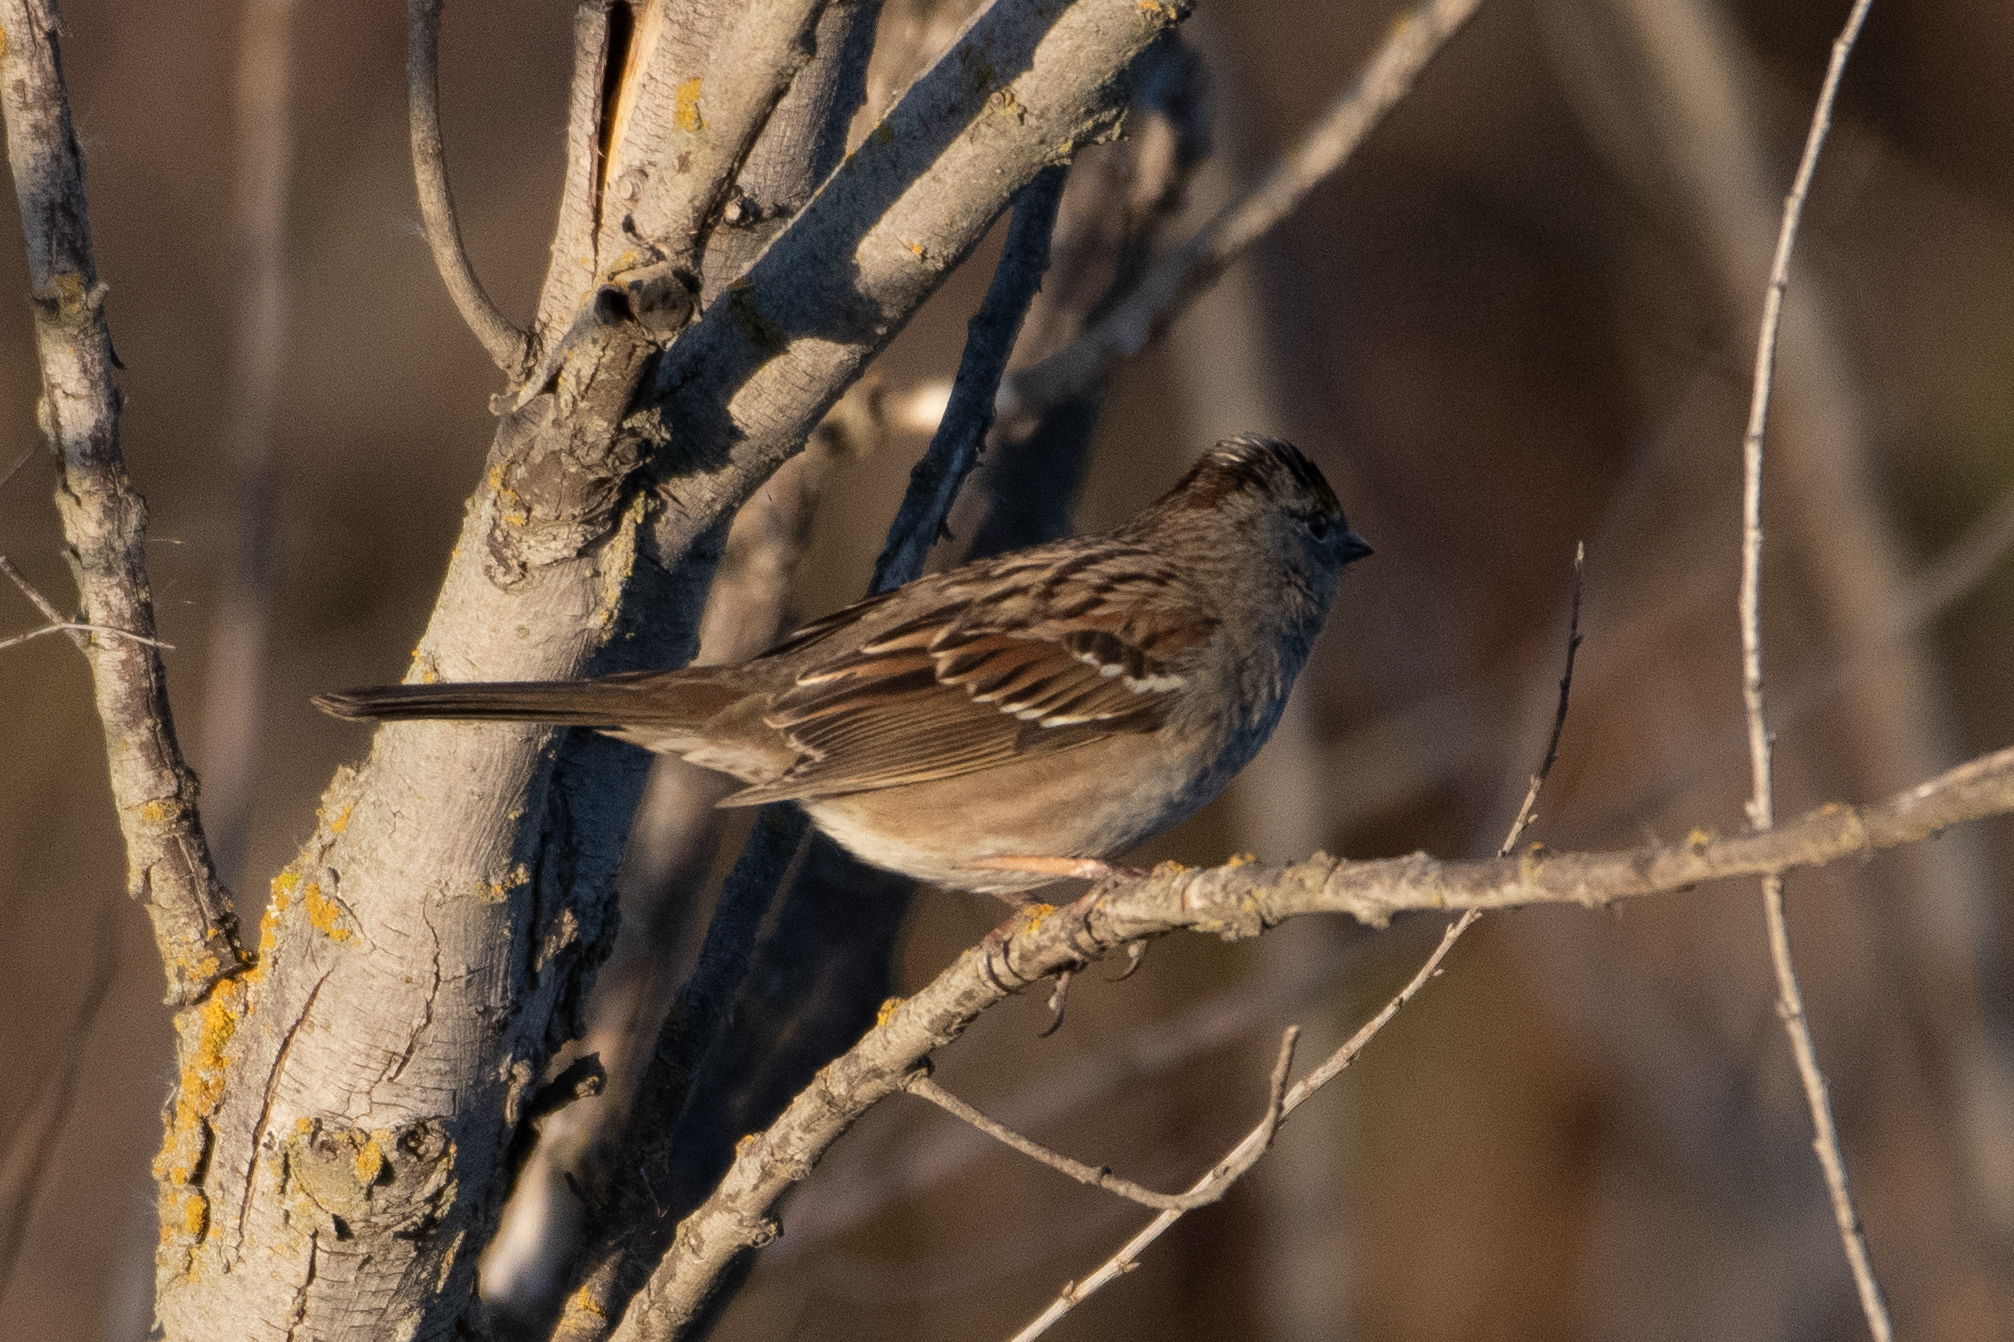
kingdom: Animalia
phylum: Chordata
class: Aves
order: Passeriformes
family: Passerellidae
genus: Zonotrichia
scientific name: Zonotrichia atricapilla
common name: Golden-crowned sparrow
